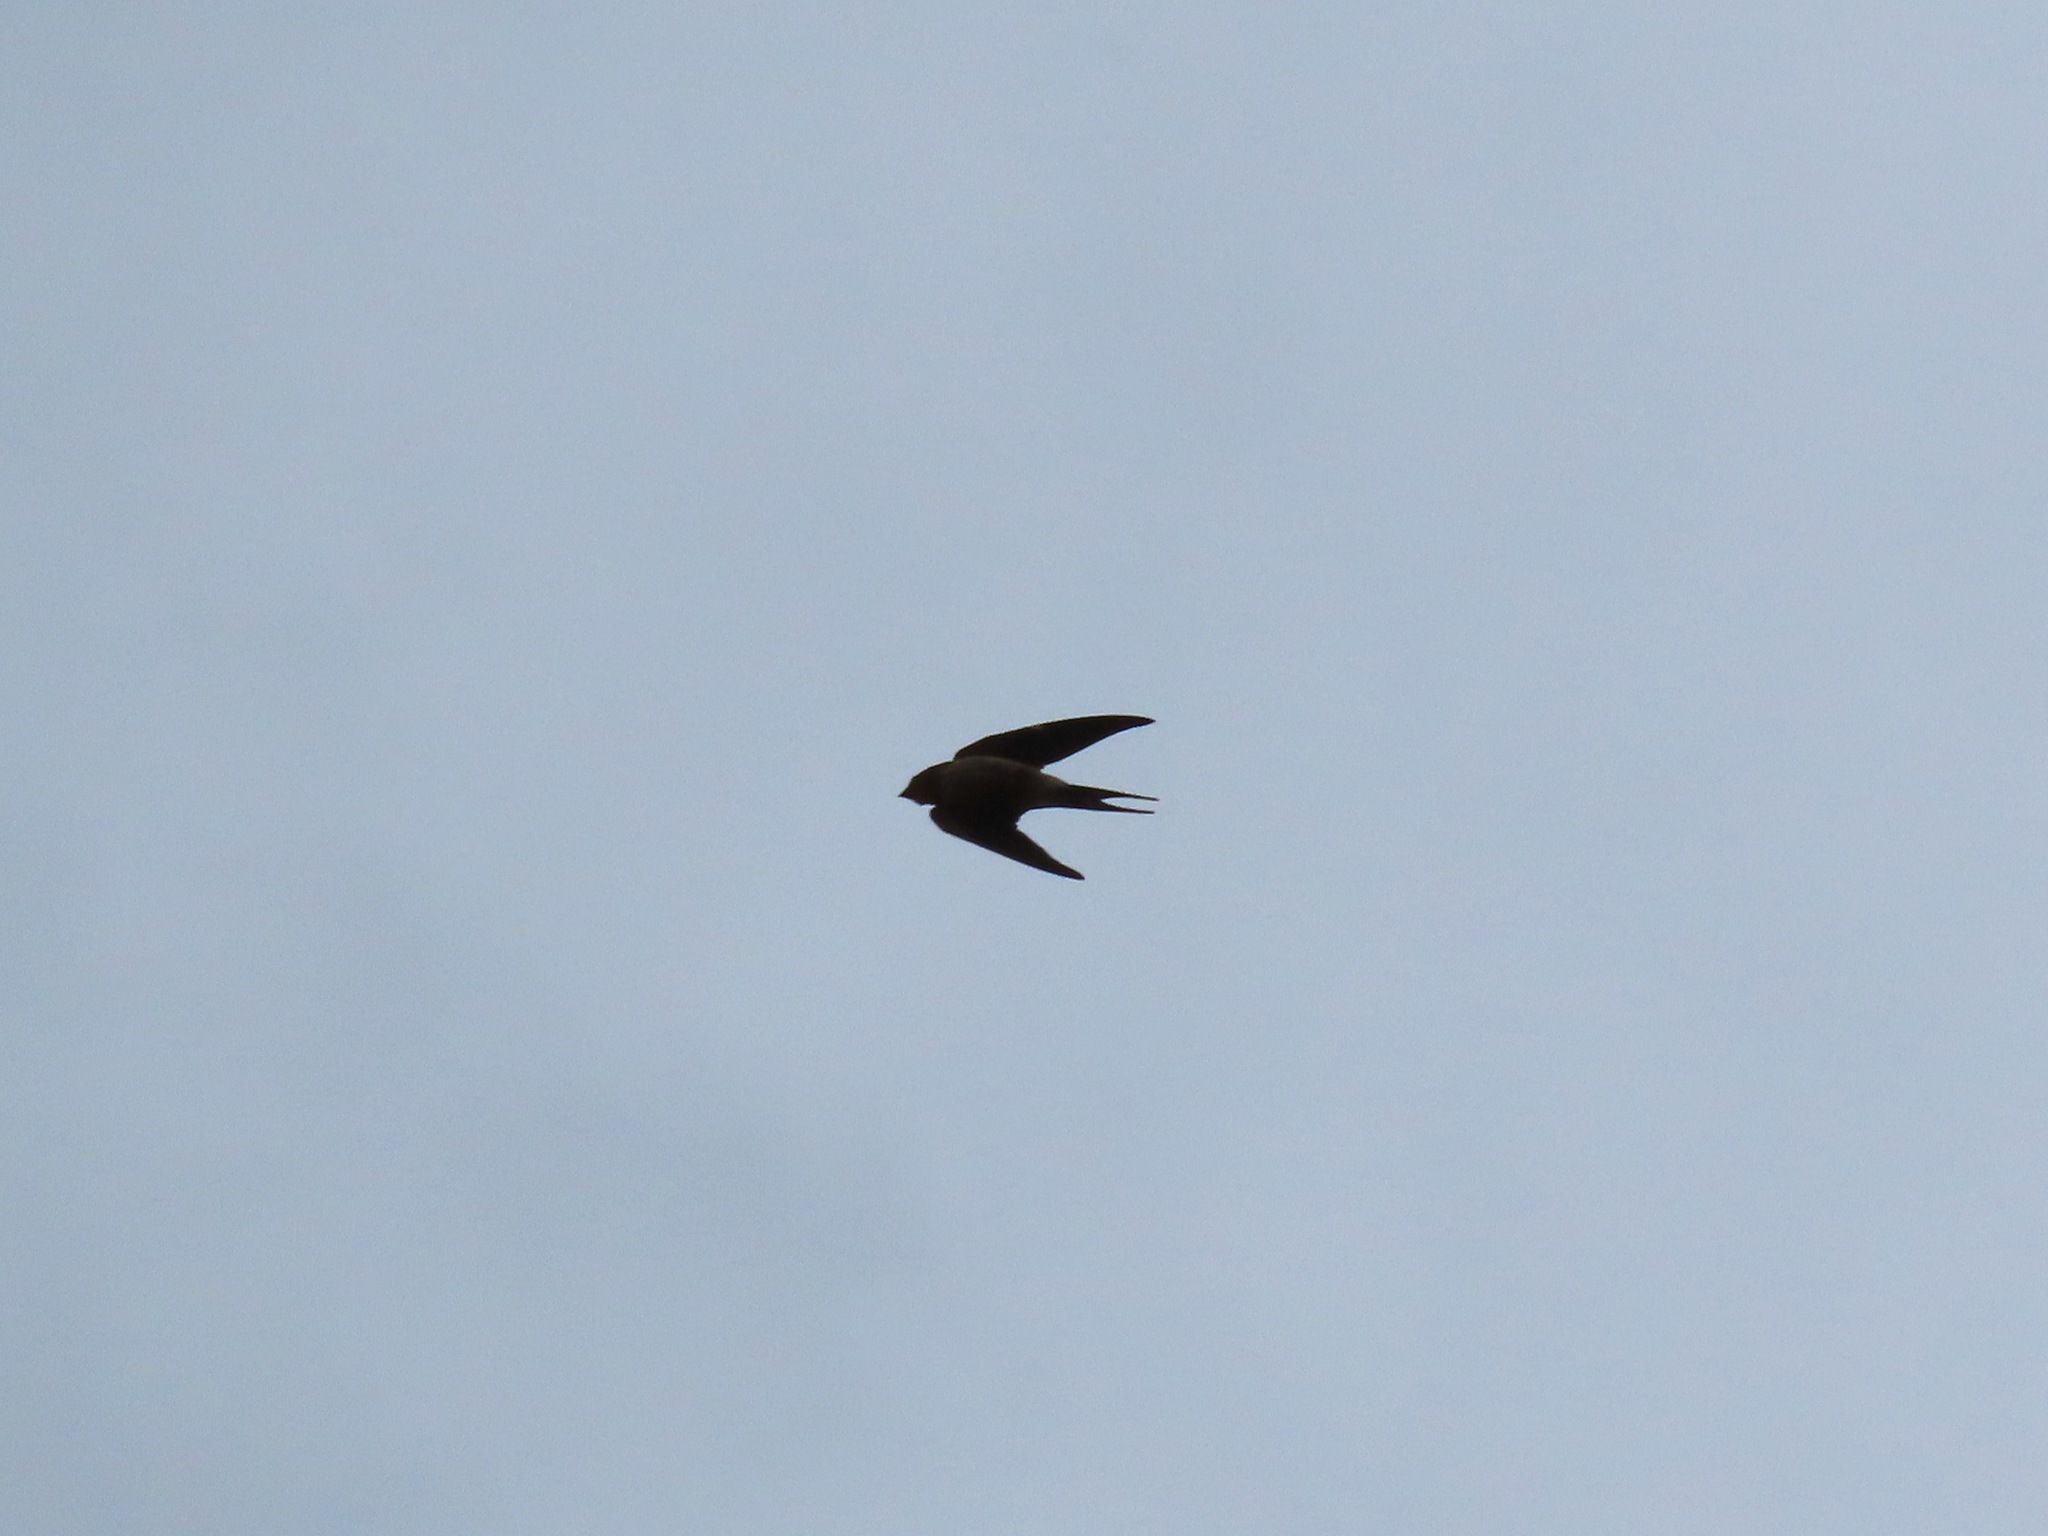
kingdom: Animalia
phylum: Chordata
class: Aves
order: Passeriformes
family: Hirundinidae
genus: Hirundo
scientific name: Hirundo rustica
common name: Barn swallow
